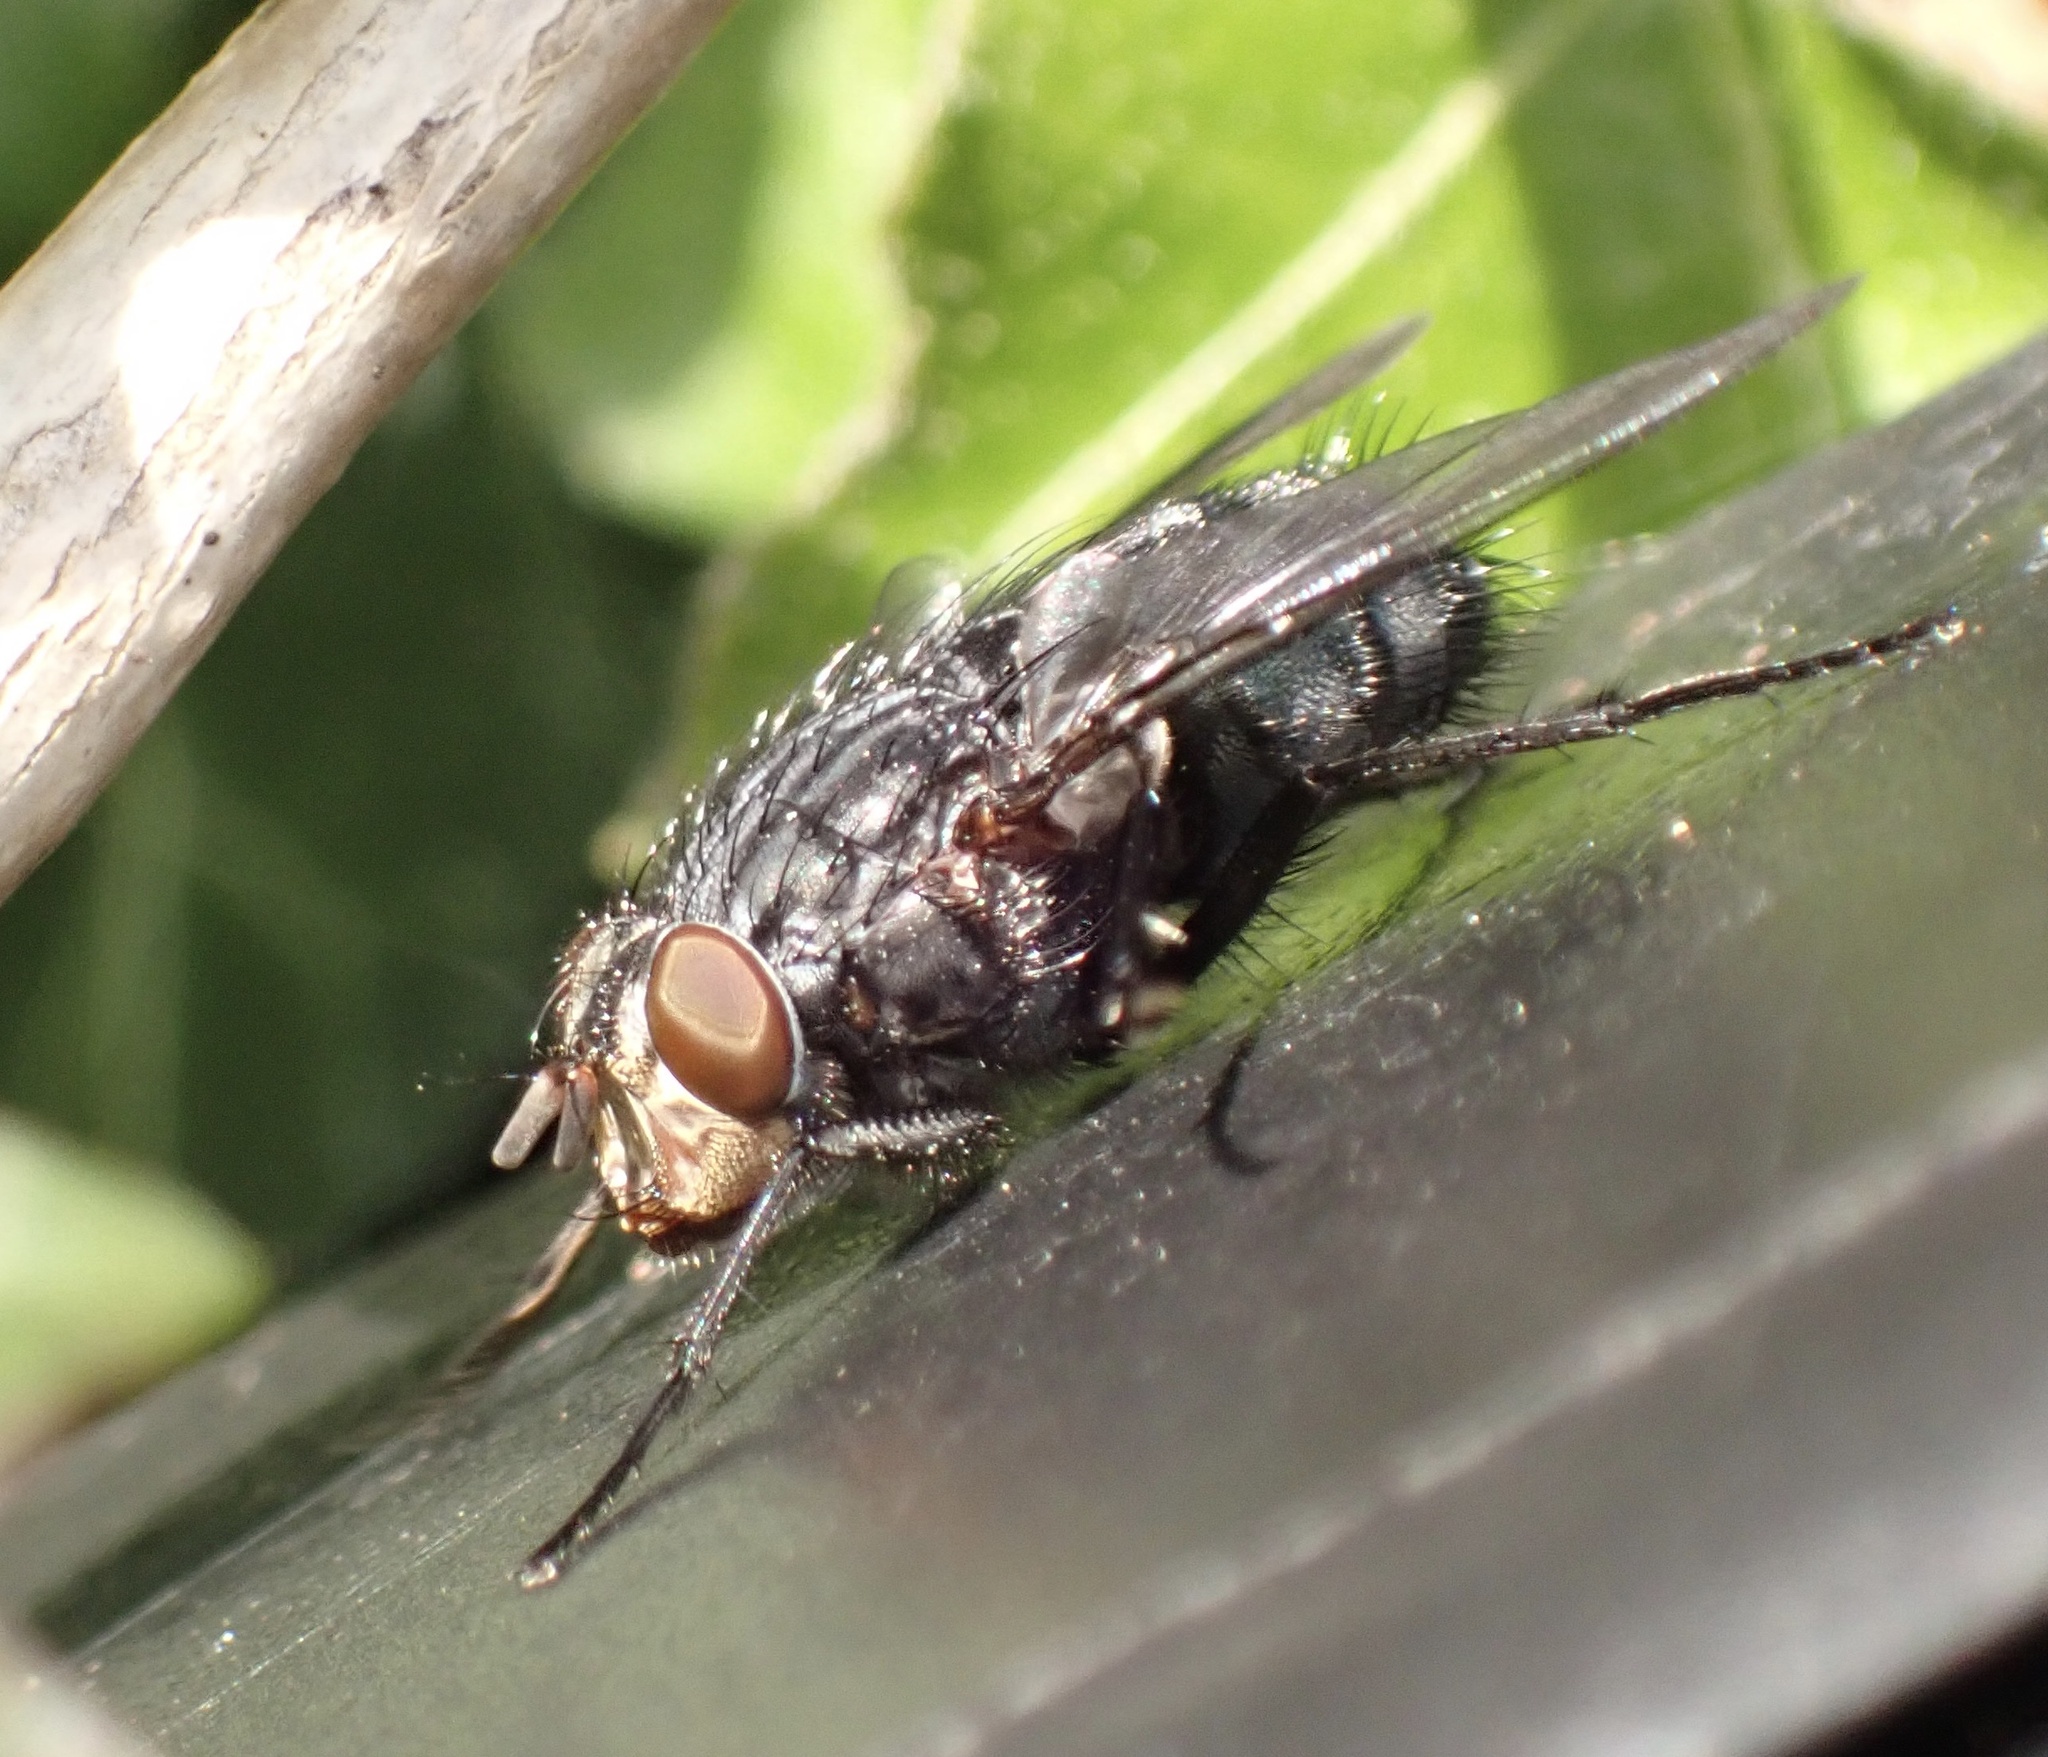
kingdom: Animalia
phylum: Arthropoda
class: Insecta
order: Diptera
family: Calliphoridae
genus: Calliphora
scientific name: Calliphora vicina
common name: Common blow flie
